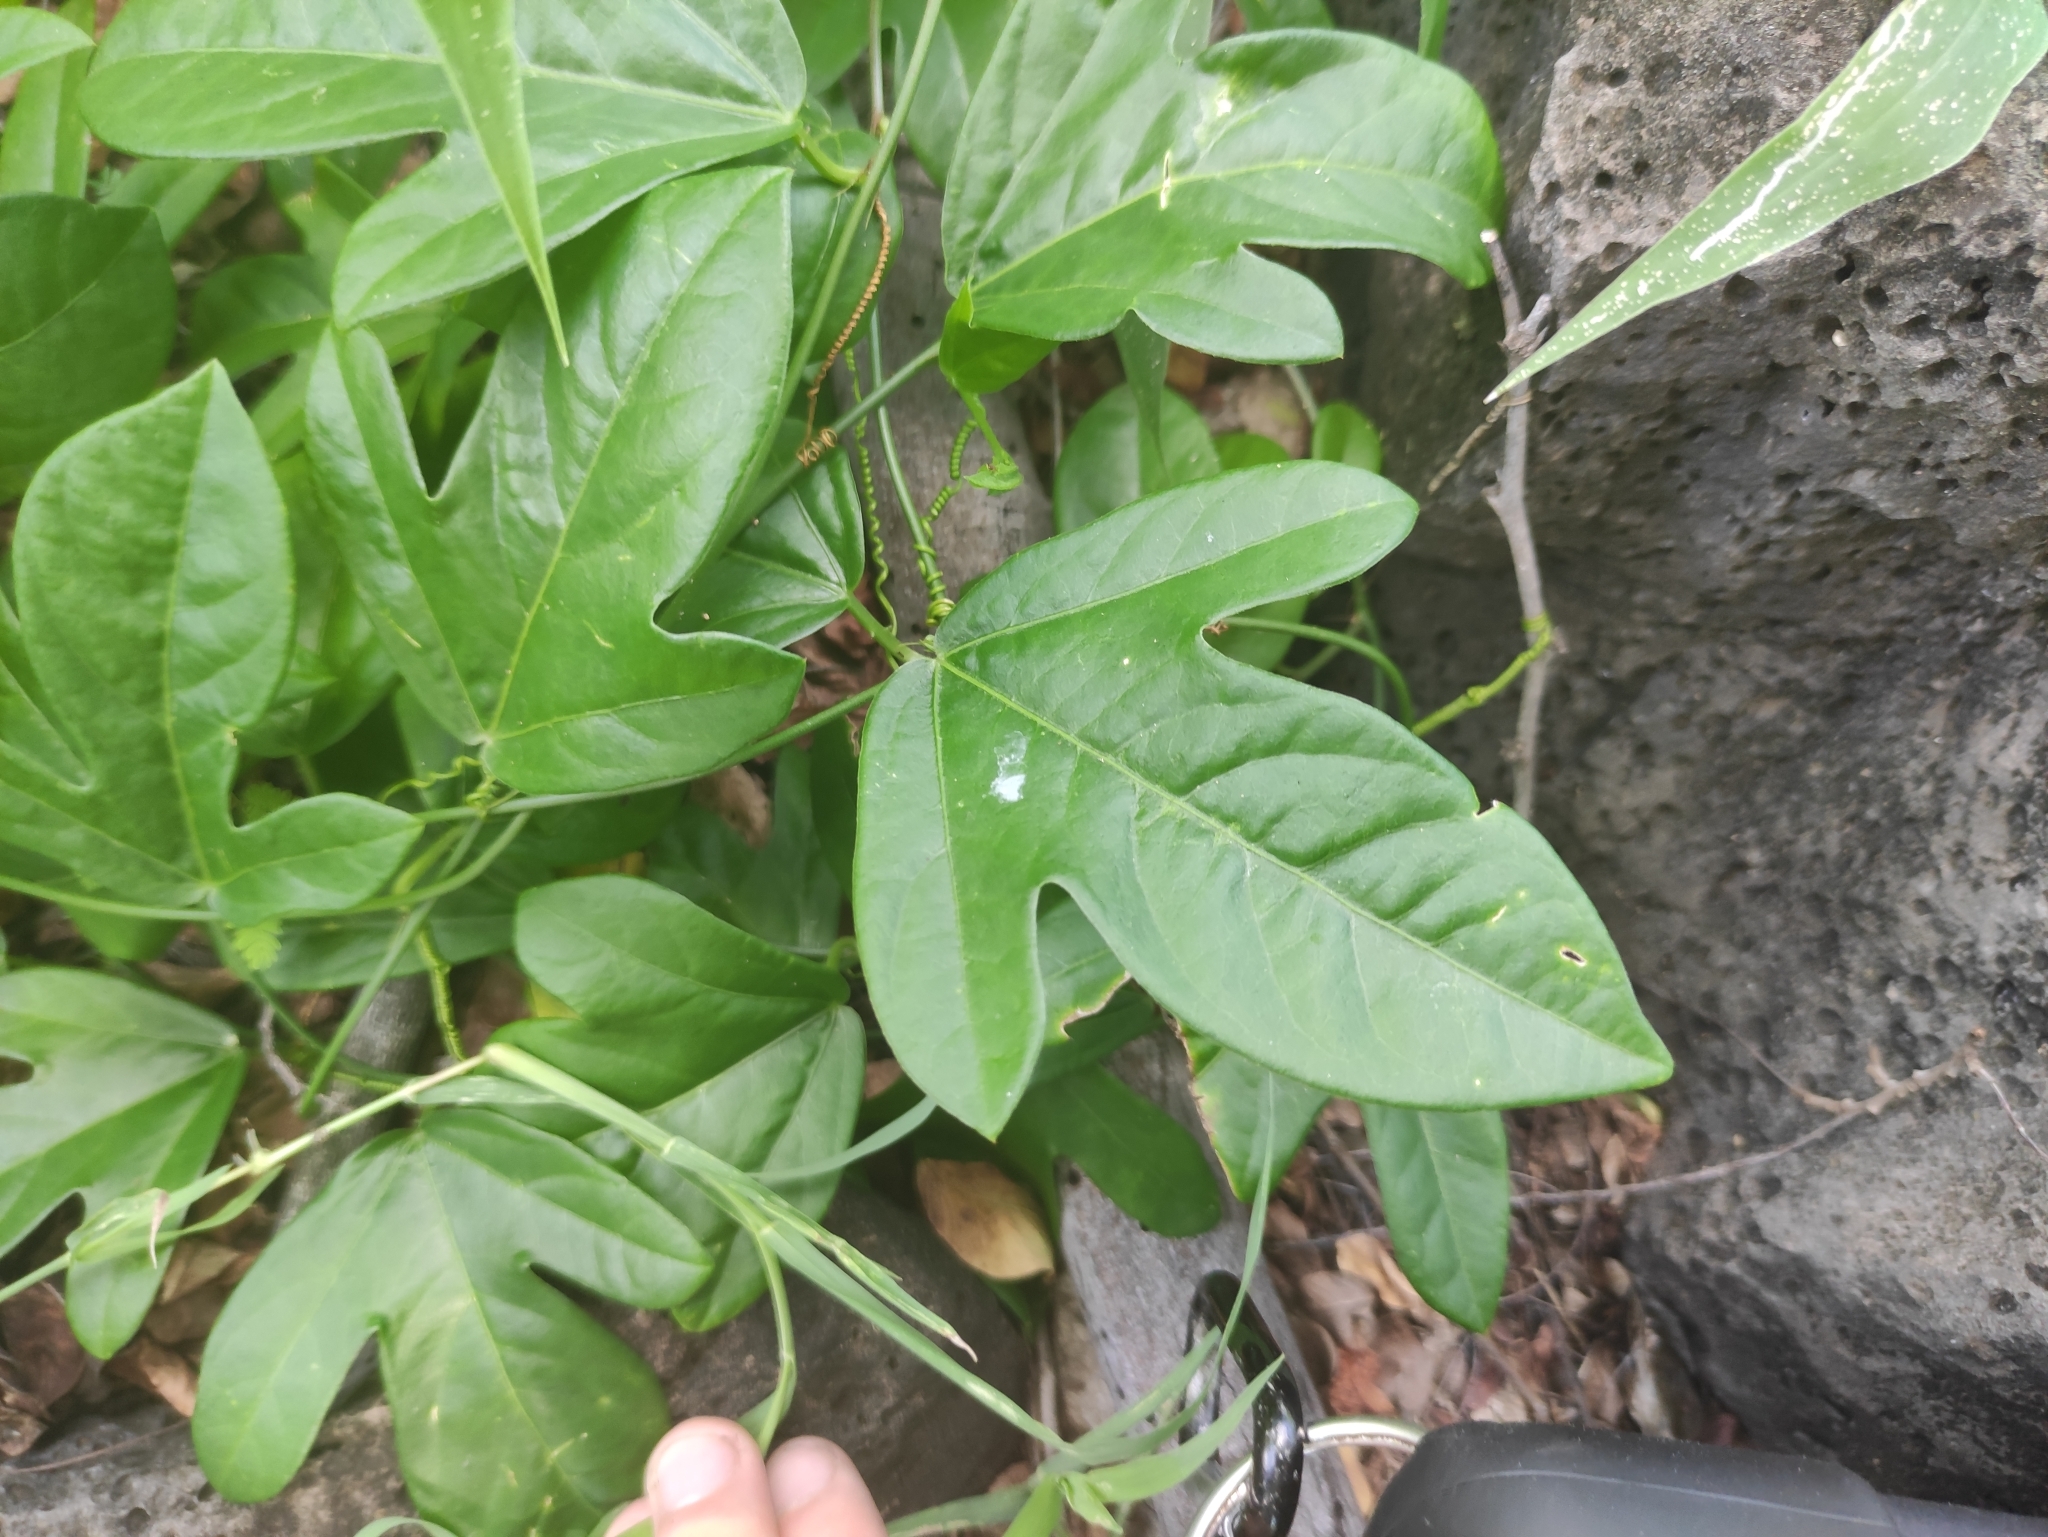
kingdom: Plantae
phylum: Tracheophyta
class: Magnoliopsida
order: Malpighiales
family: Passifloraceae
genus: Passiflora
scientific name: Passiflora pallida
